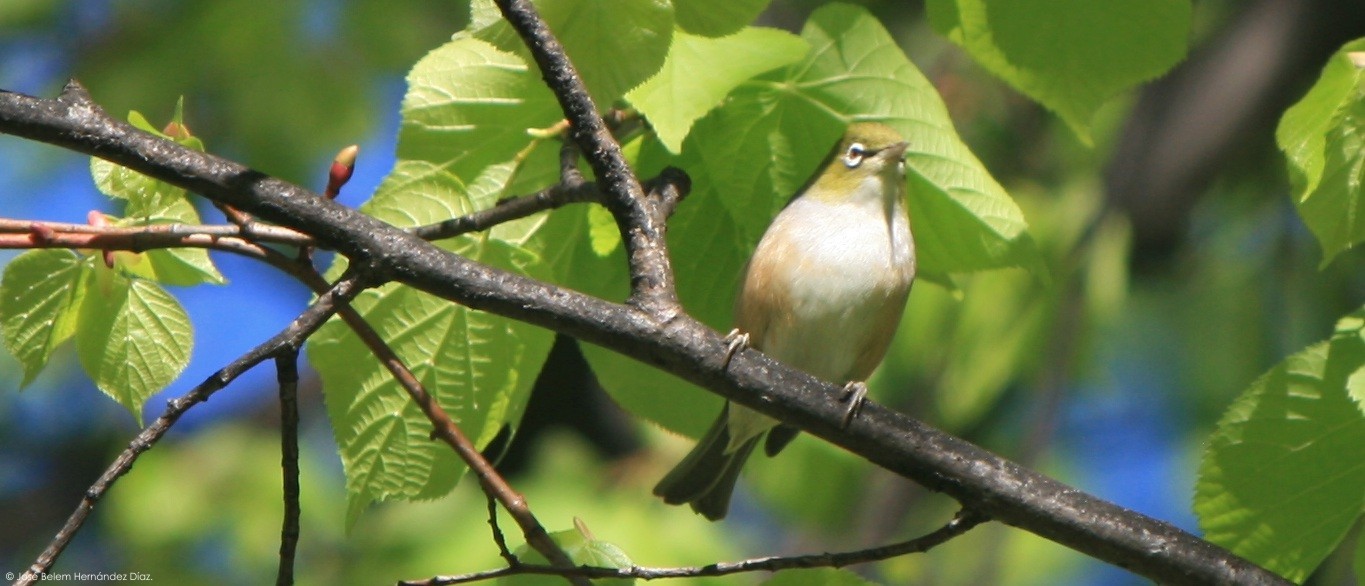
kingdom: Animalia
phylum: Chordata
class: Aves
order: Passeriformes
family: Zosteropidae
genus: Zosterops
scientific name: Zosterops lateralis
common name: Silvereye
